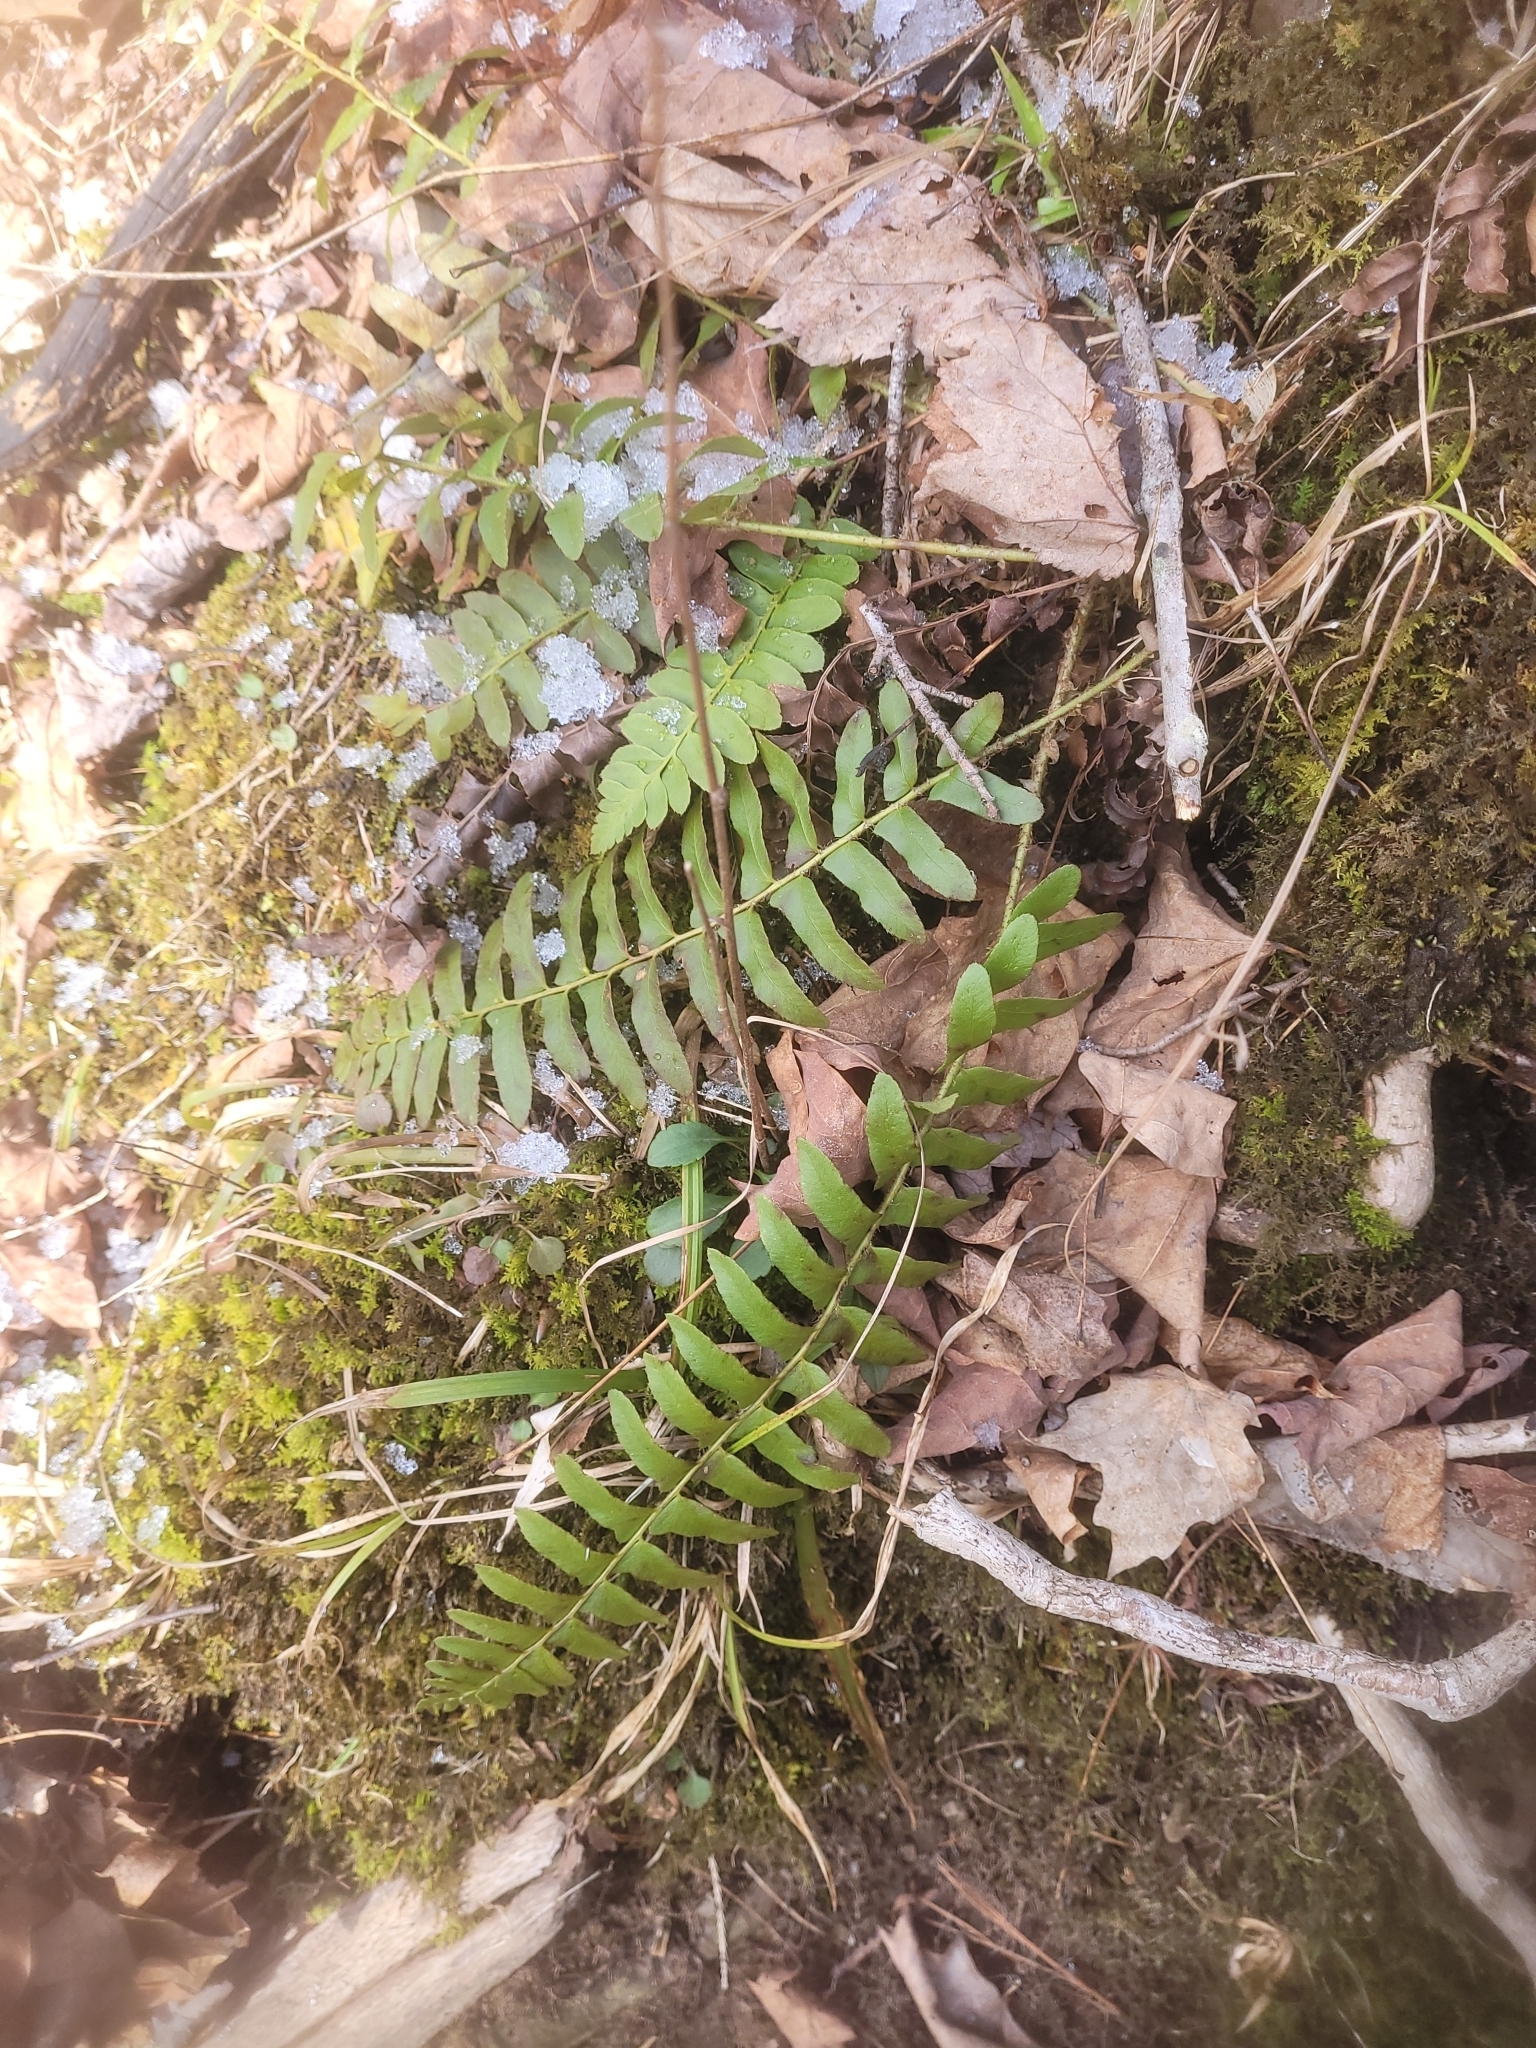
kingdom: Plantae
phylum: Tracheophyta
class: Polypodiopsida
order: Polypodiales
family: Dryopteridaceae
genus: Polystichum
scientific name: Polystichum acrostichoides
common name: Christmas fern
